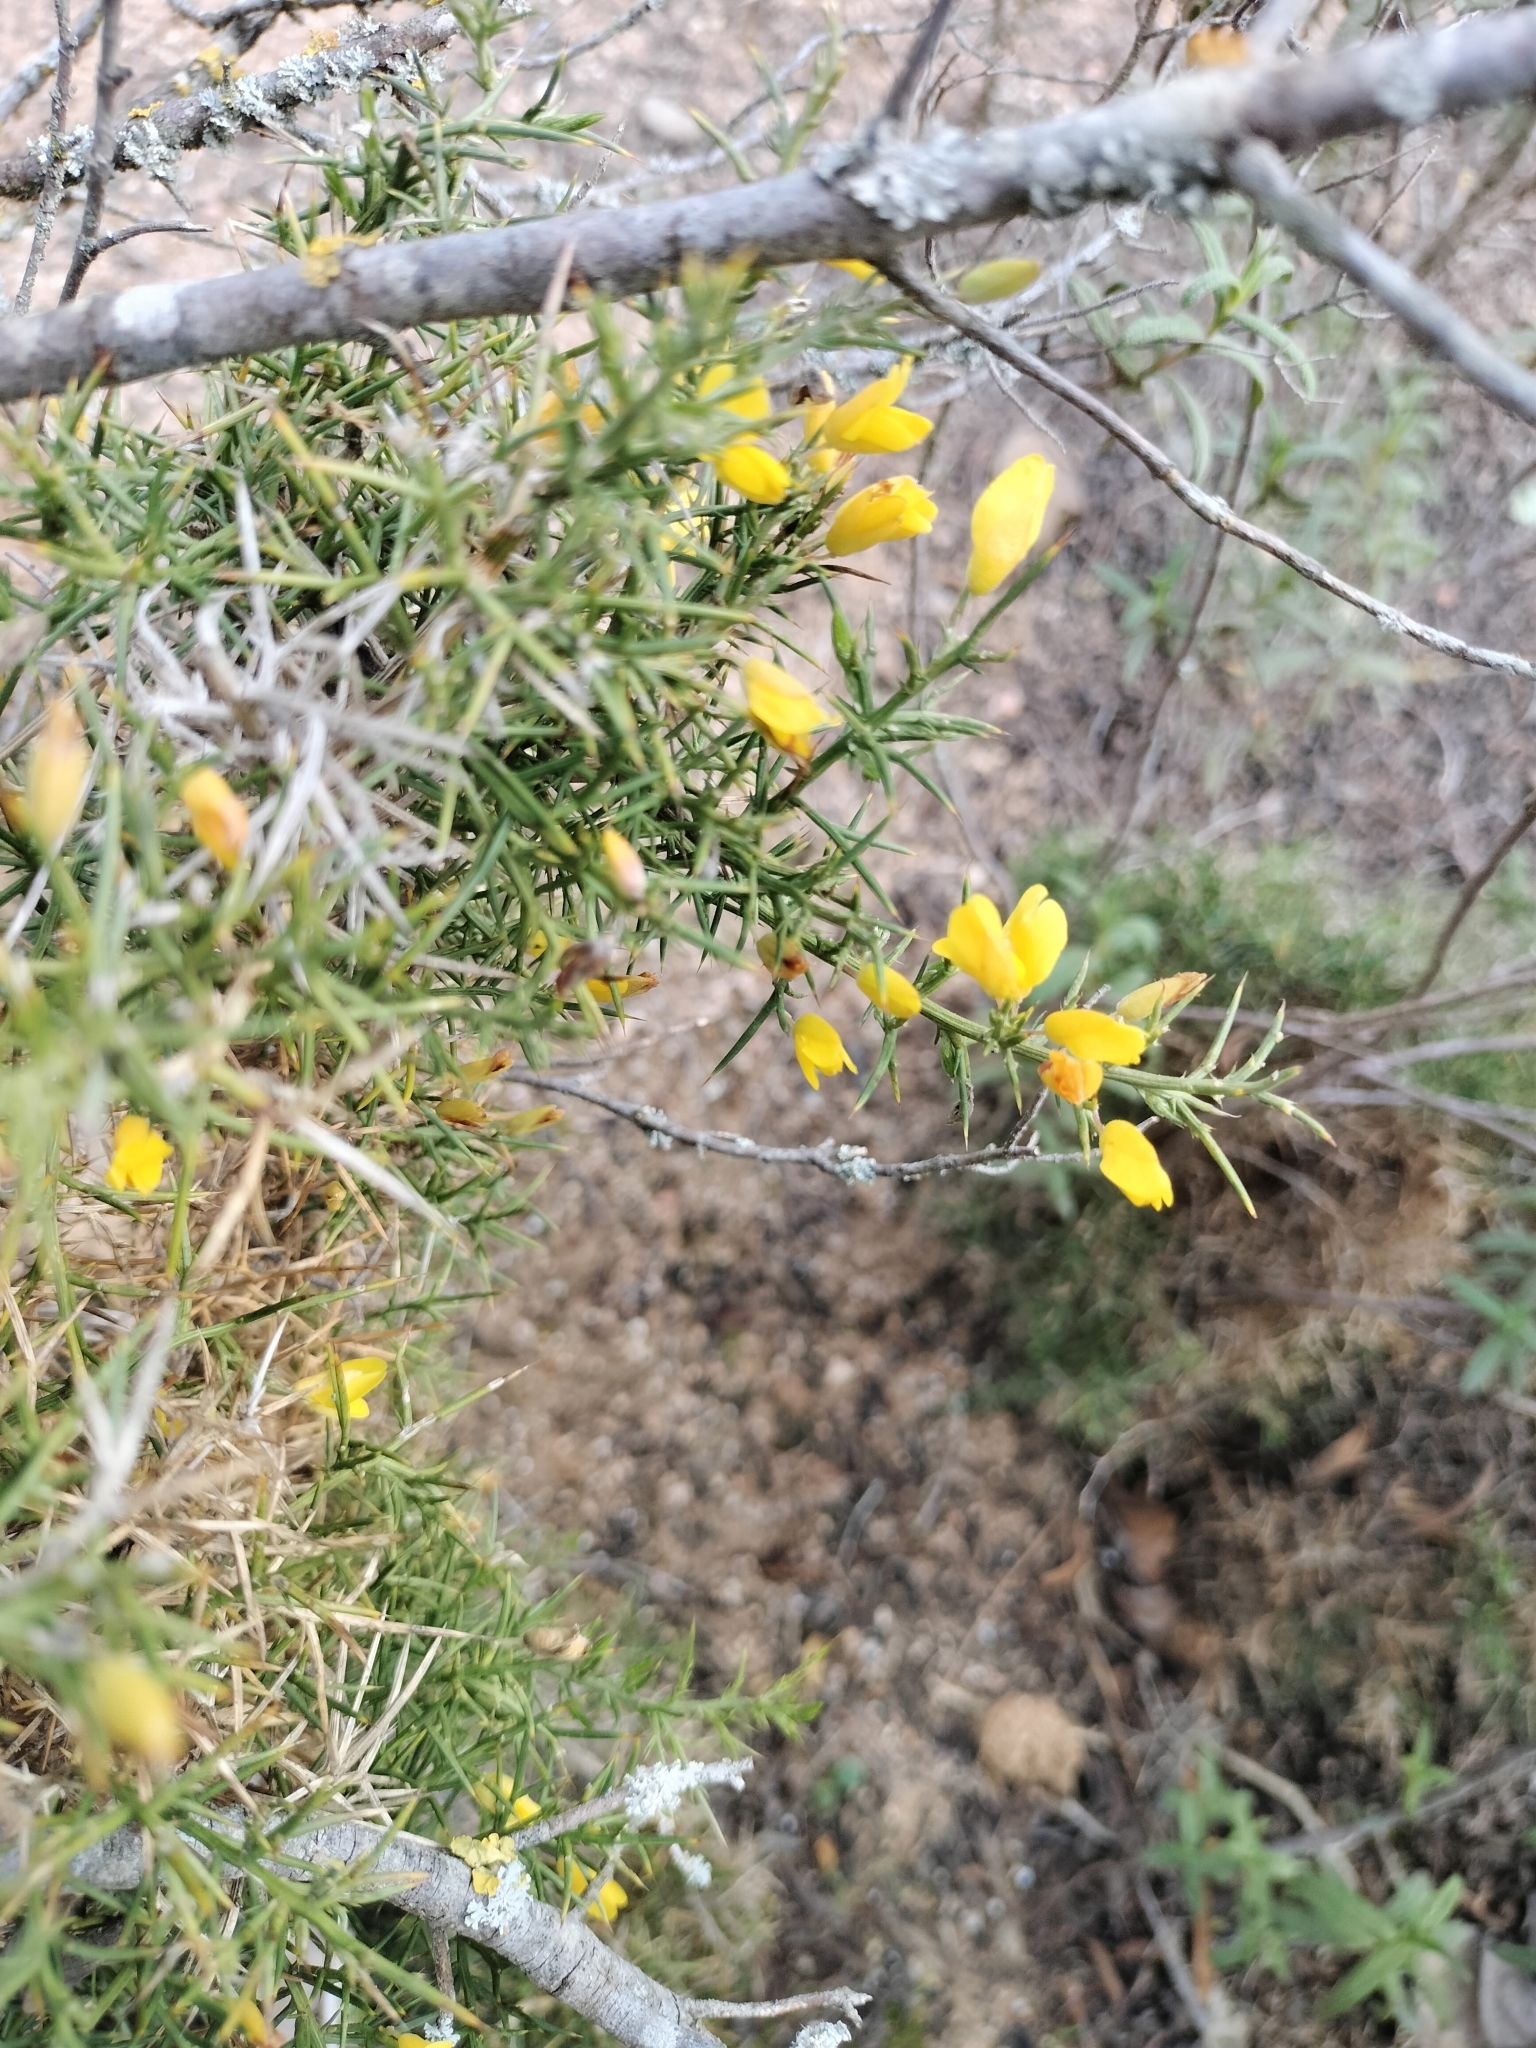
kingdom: Plantae
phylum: Tracheophyta
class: Magnoliopsida
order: Fabales
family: Fabaceae
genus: Ulex
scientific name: Ulex parviflorus
